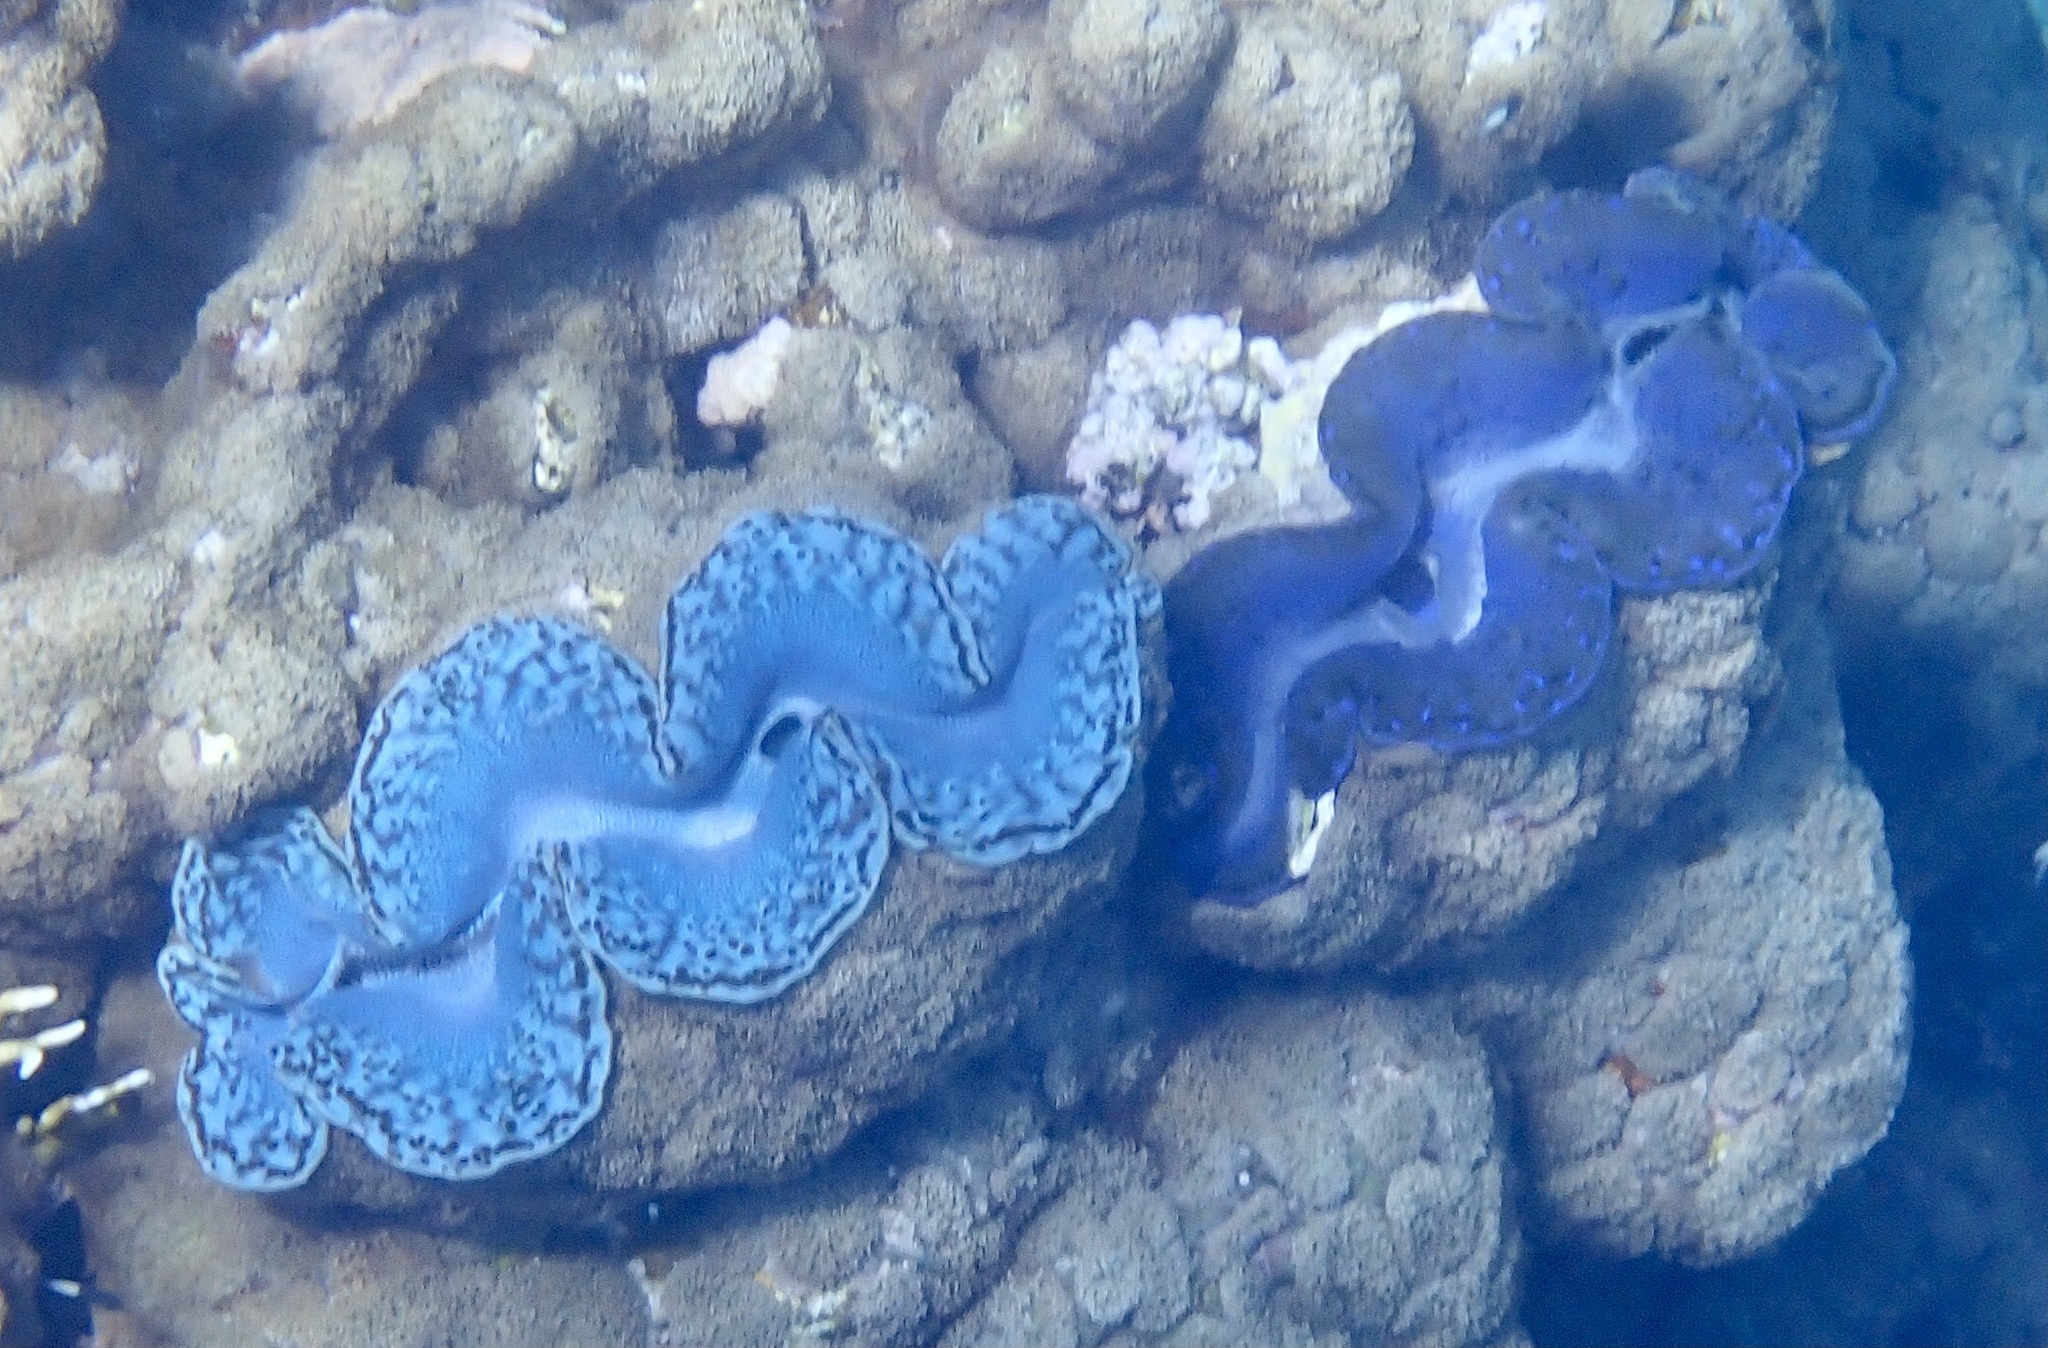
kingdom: Animalia
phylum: Mollusca
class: Bivalvia
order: Cardiida
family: Cardiidae
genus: Tridacna
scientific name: Tridacna maxima
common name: Small giant clam
